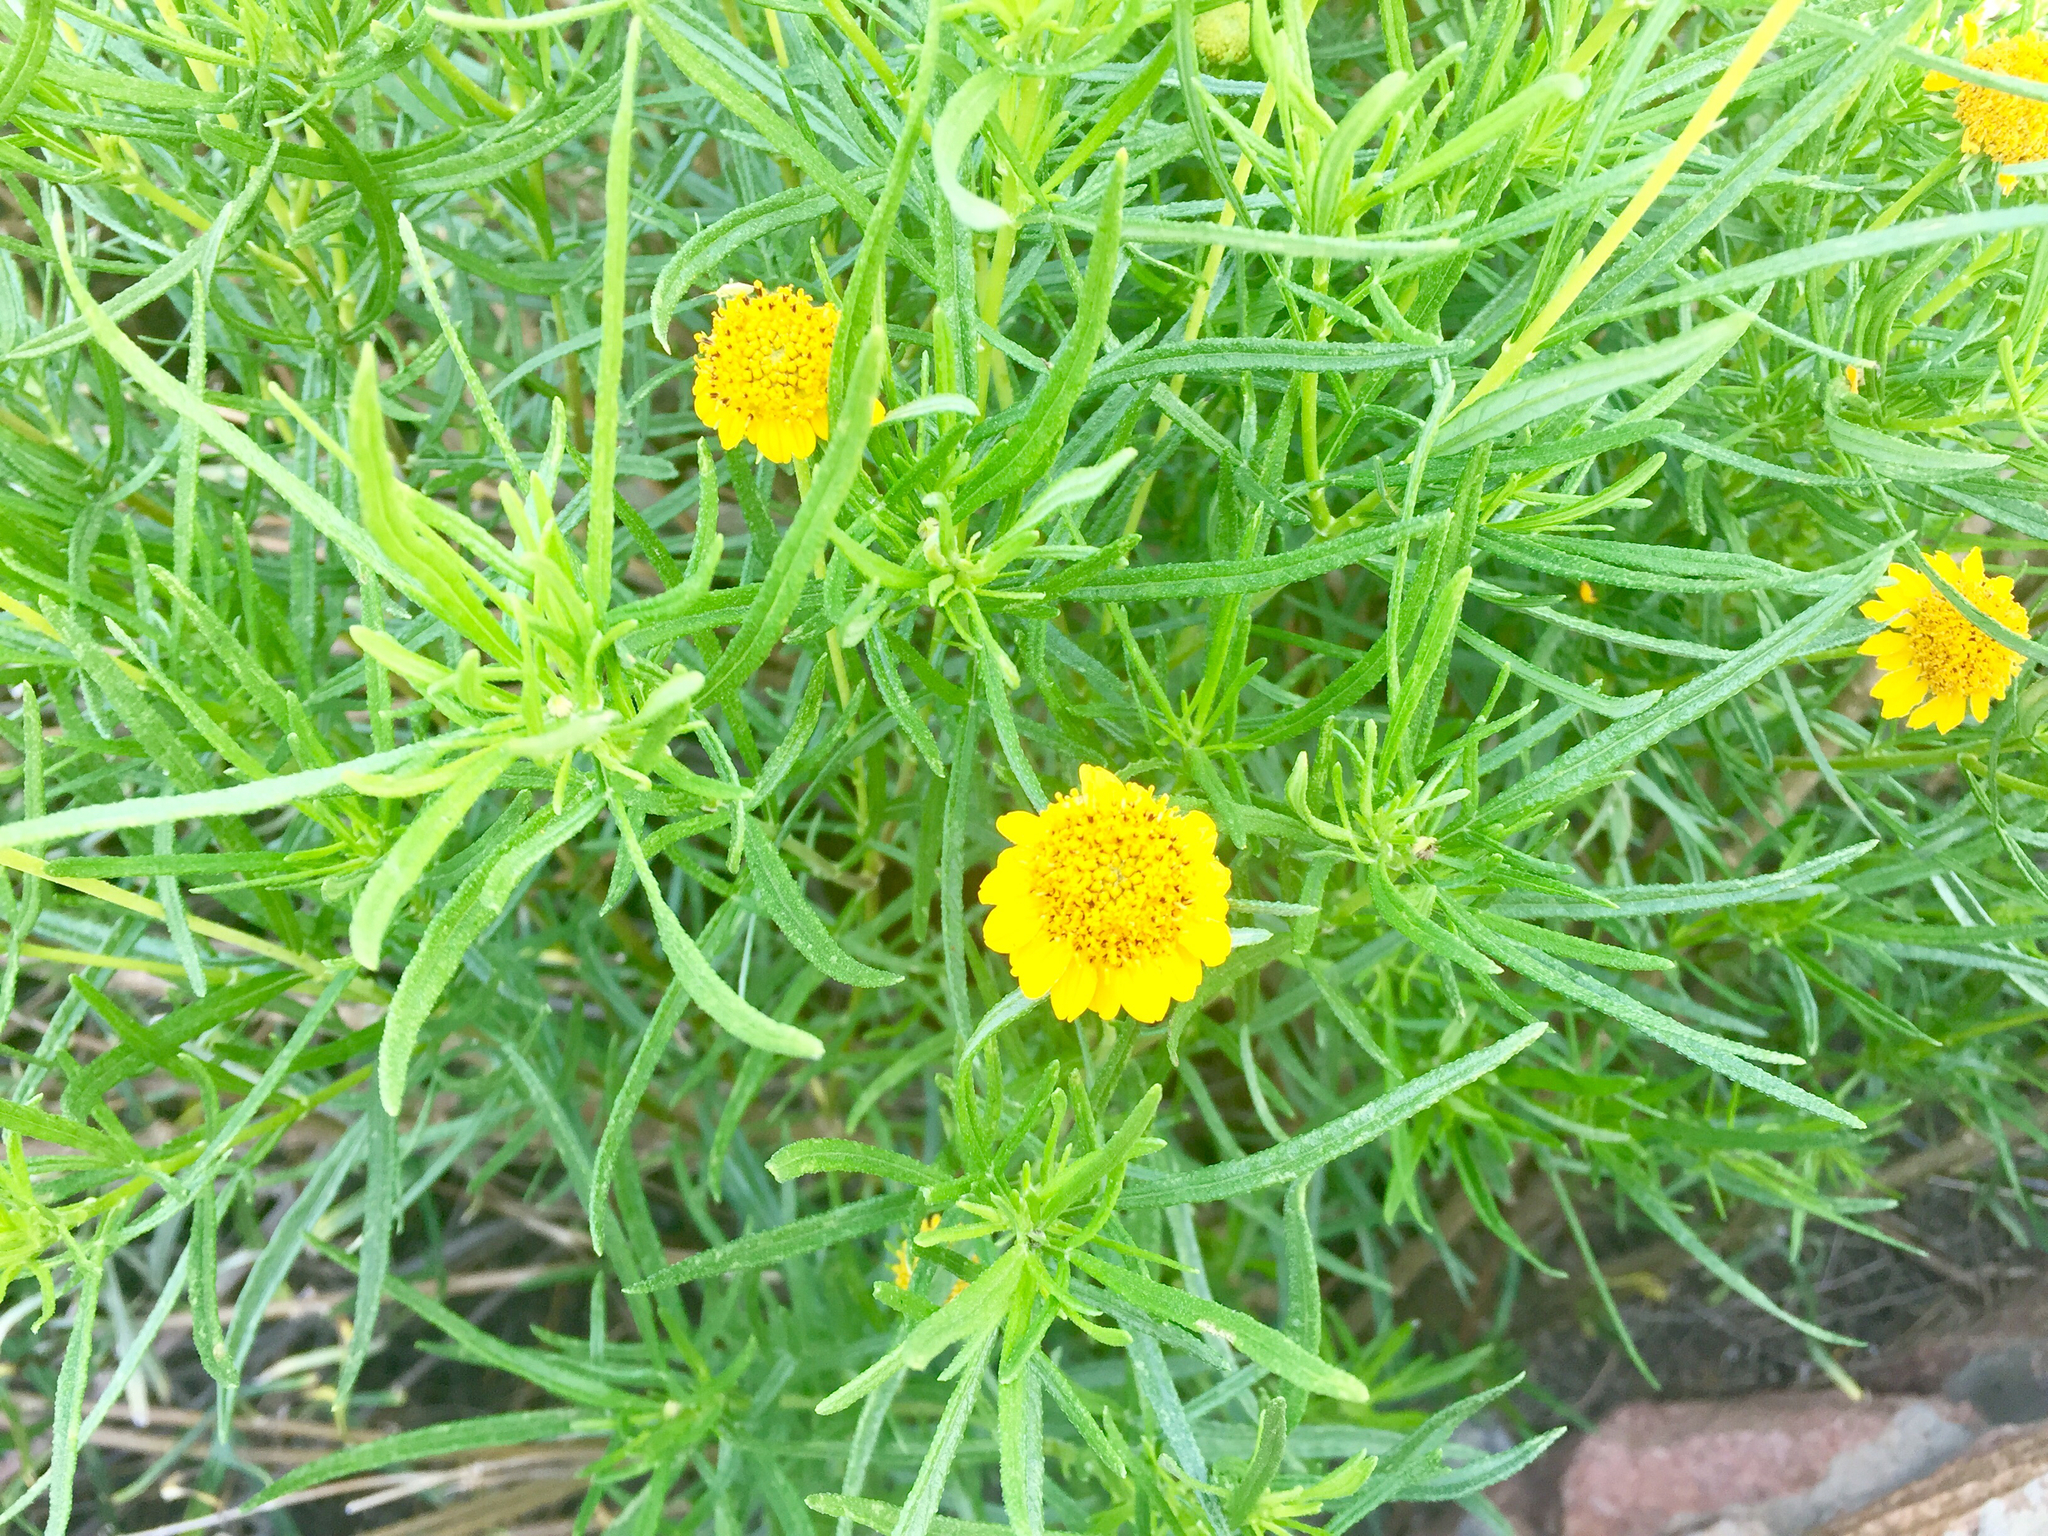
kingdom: Plantae
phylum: Tracheophyta
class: Magnoliopsida
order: Asterales
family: Asteraceae
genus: Sidneya
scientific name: Sidneya tenuifolia
